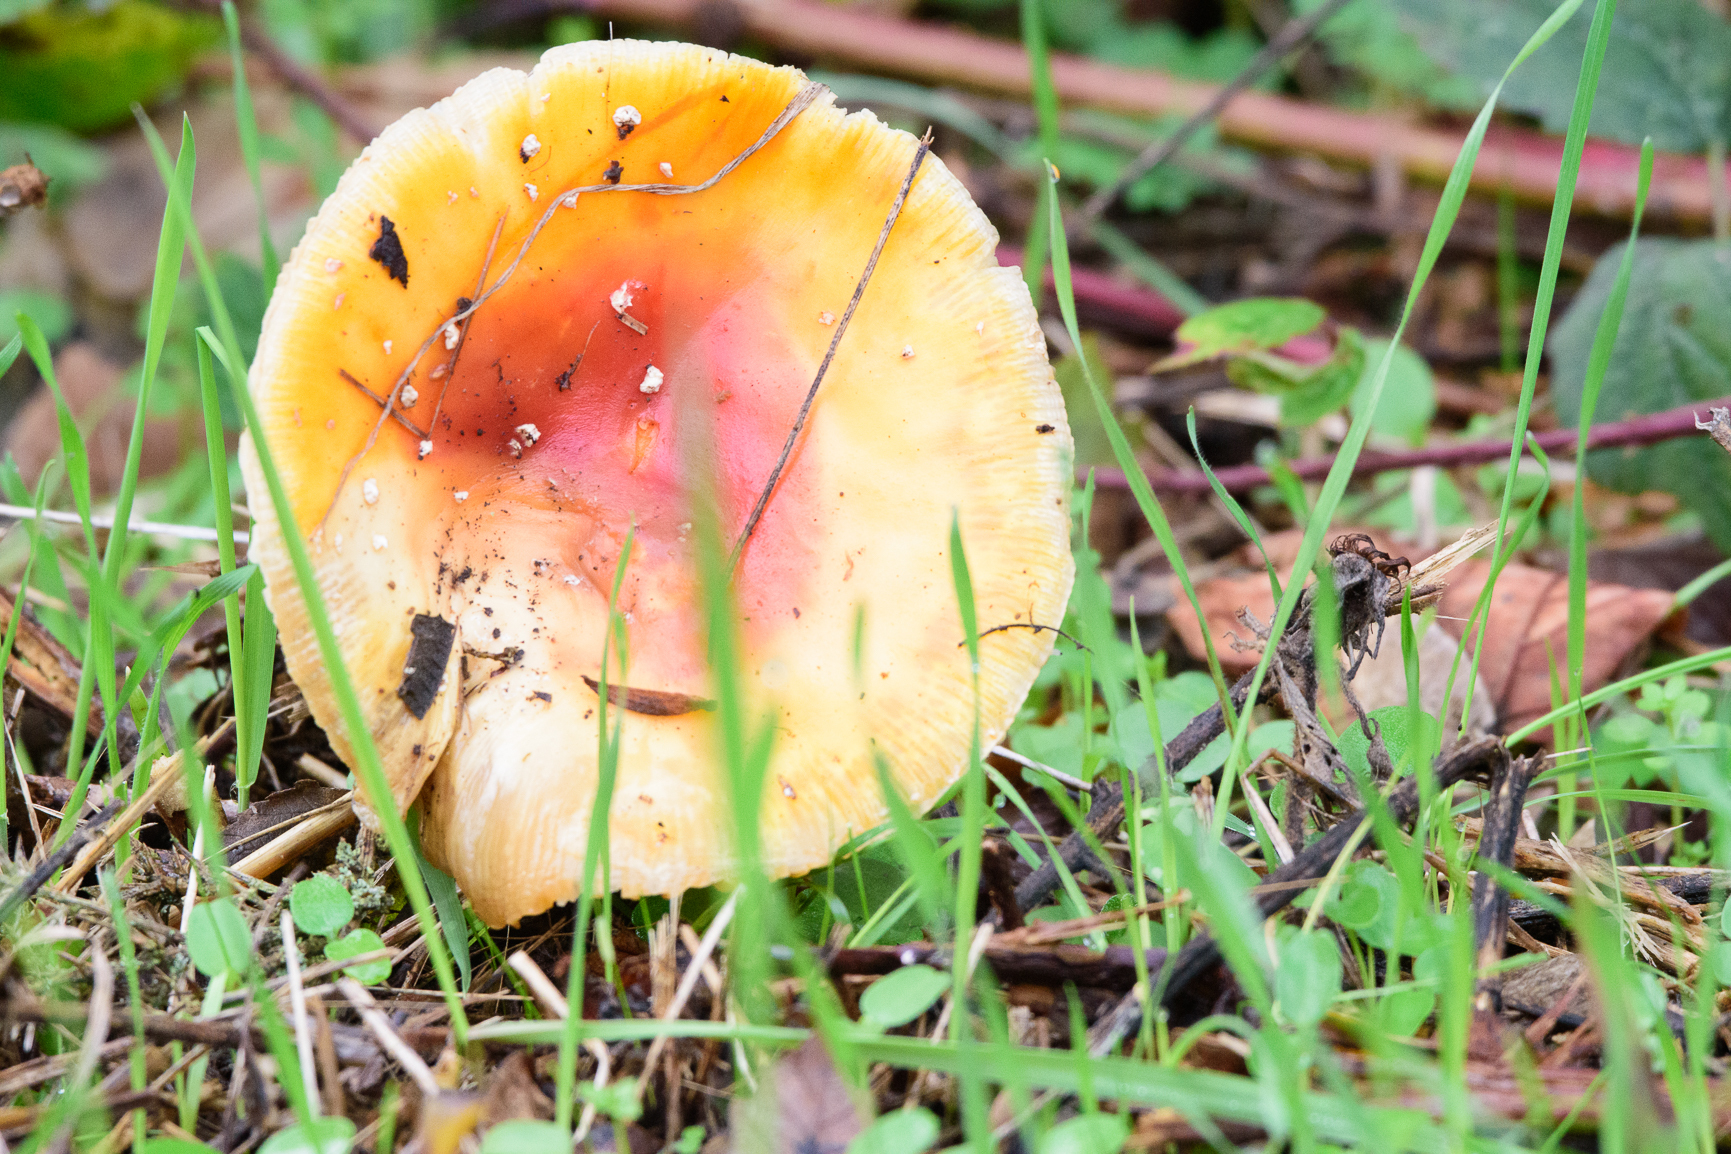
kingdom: Fungi
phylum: Basidiomycota
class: Agaricomycetes
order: Agaricales
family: Amanitaceae
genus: Amanita
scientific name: Amanita muscaria
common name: Fly agaric
